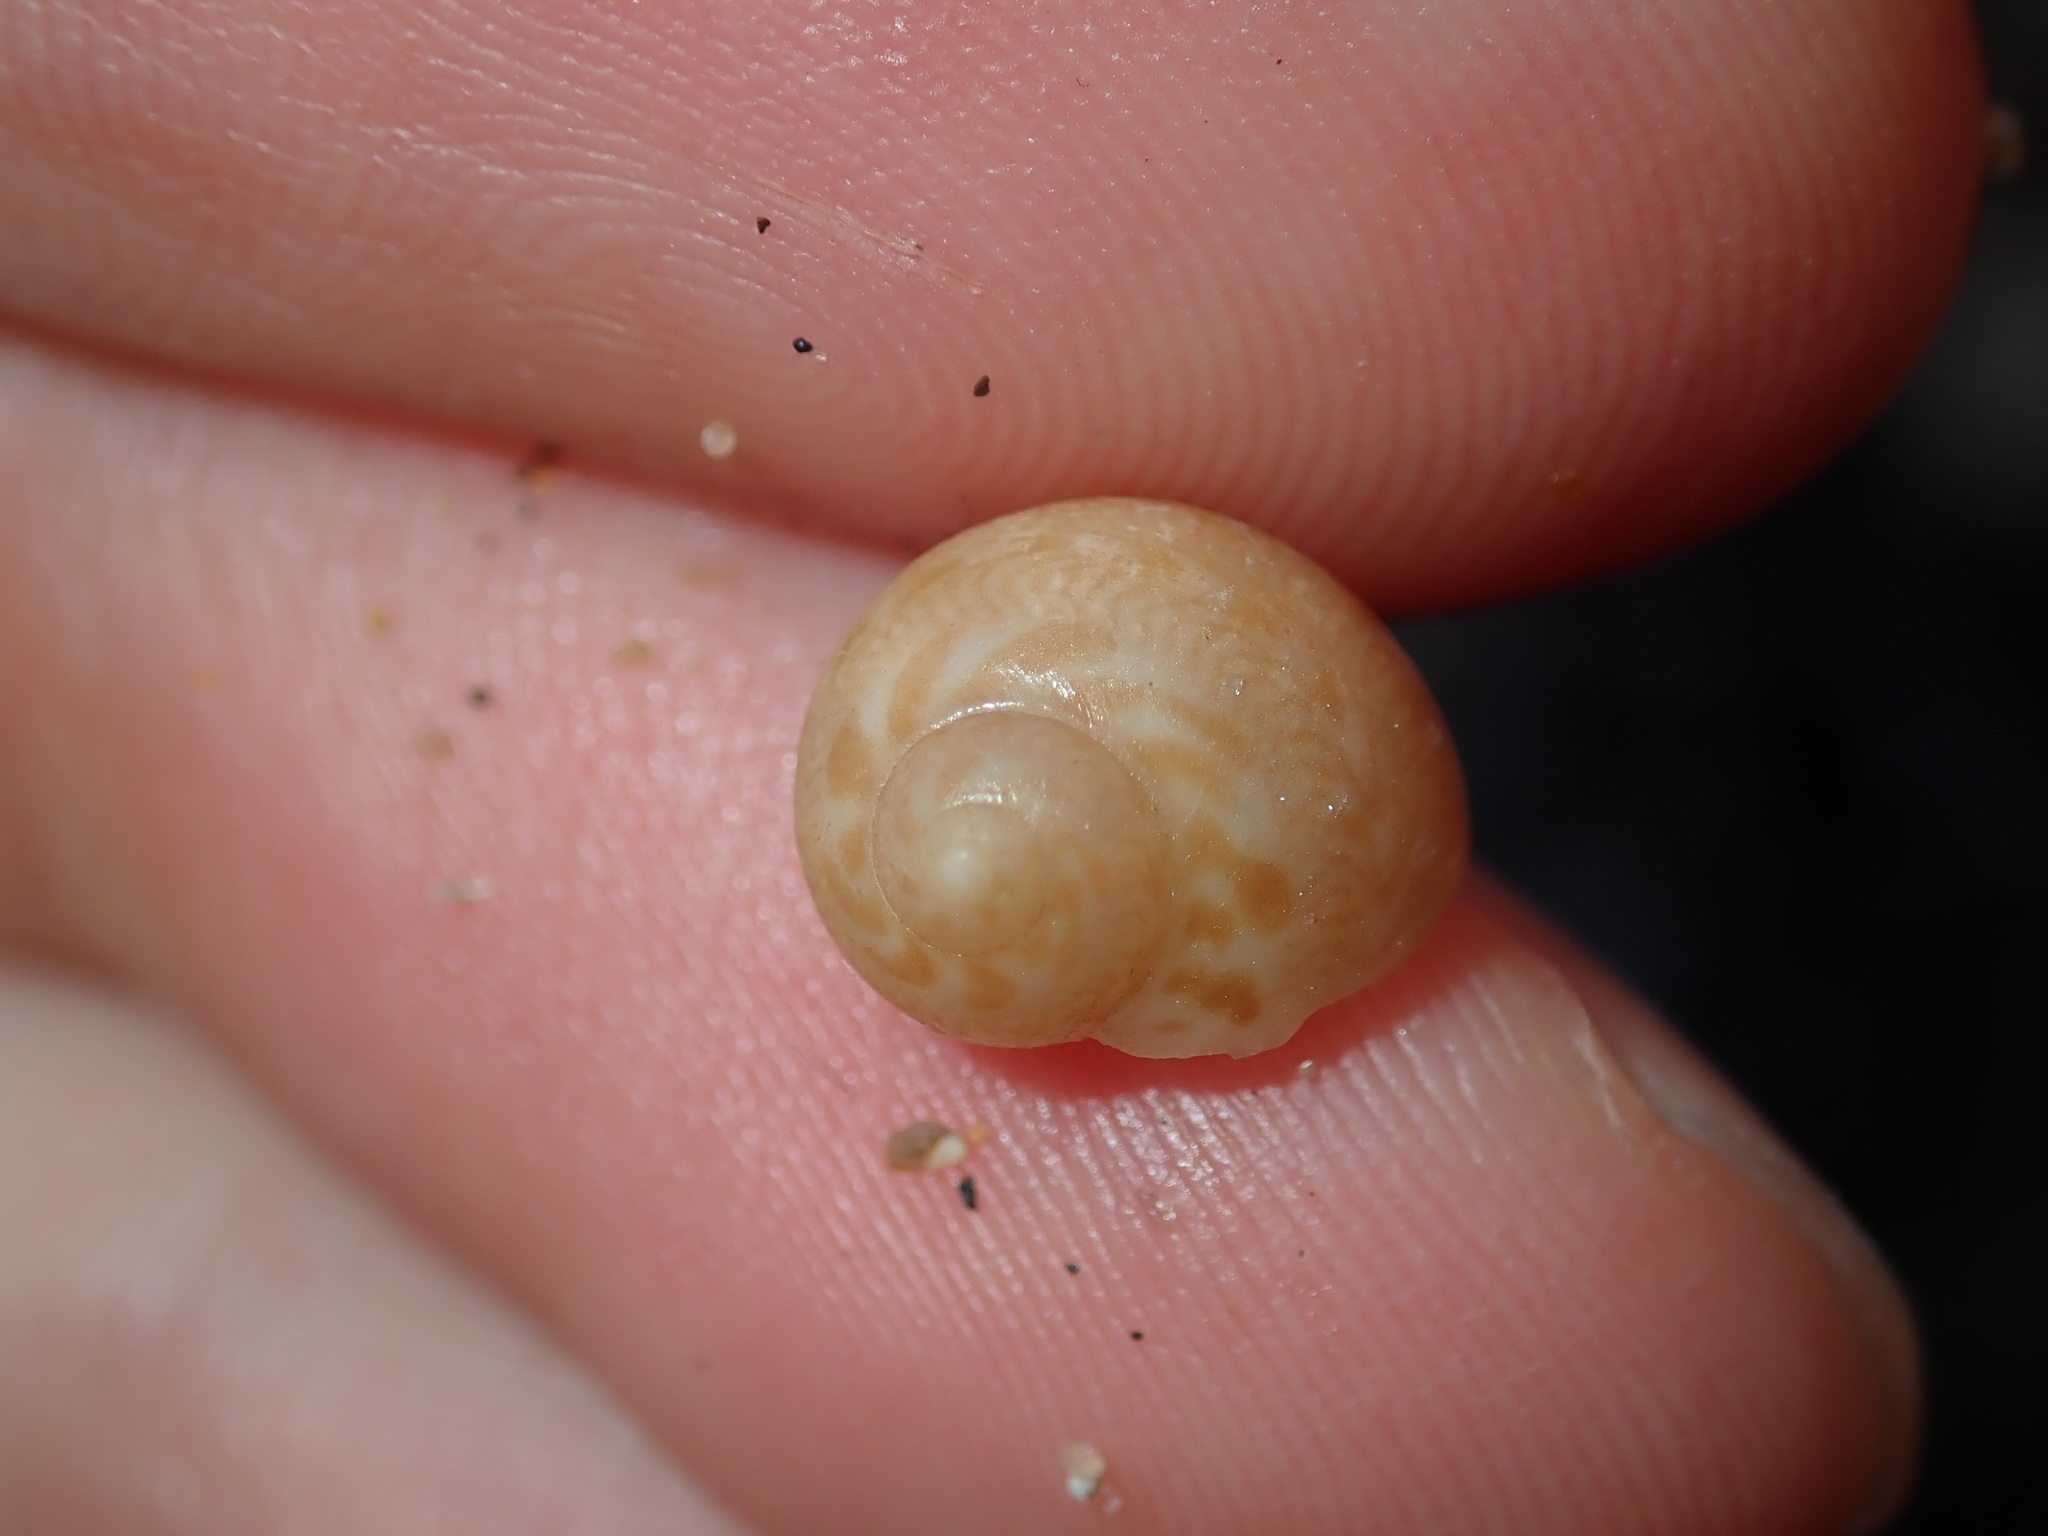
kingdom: Animalia
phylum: Mollusca
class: Gastropoda
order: Littorinimorpha
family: Naticidae
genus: Tanea
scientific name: Tanea sagittata
